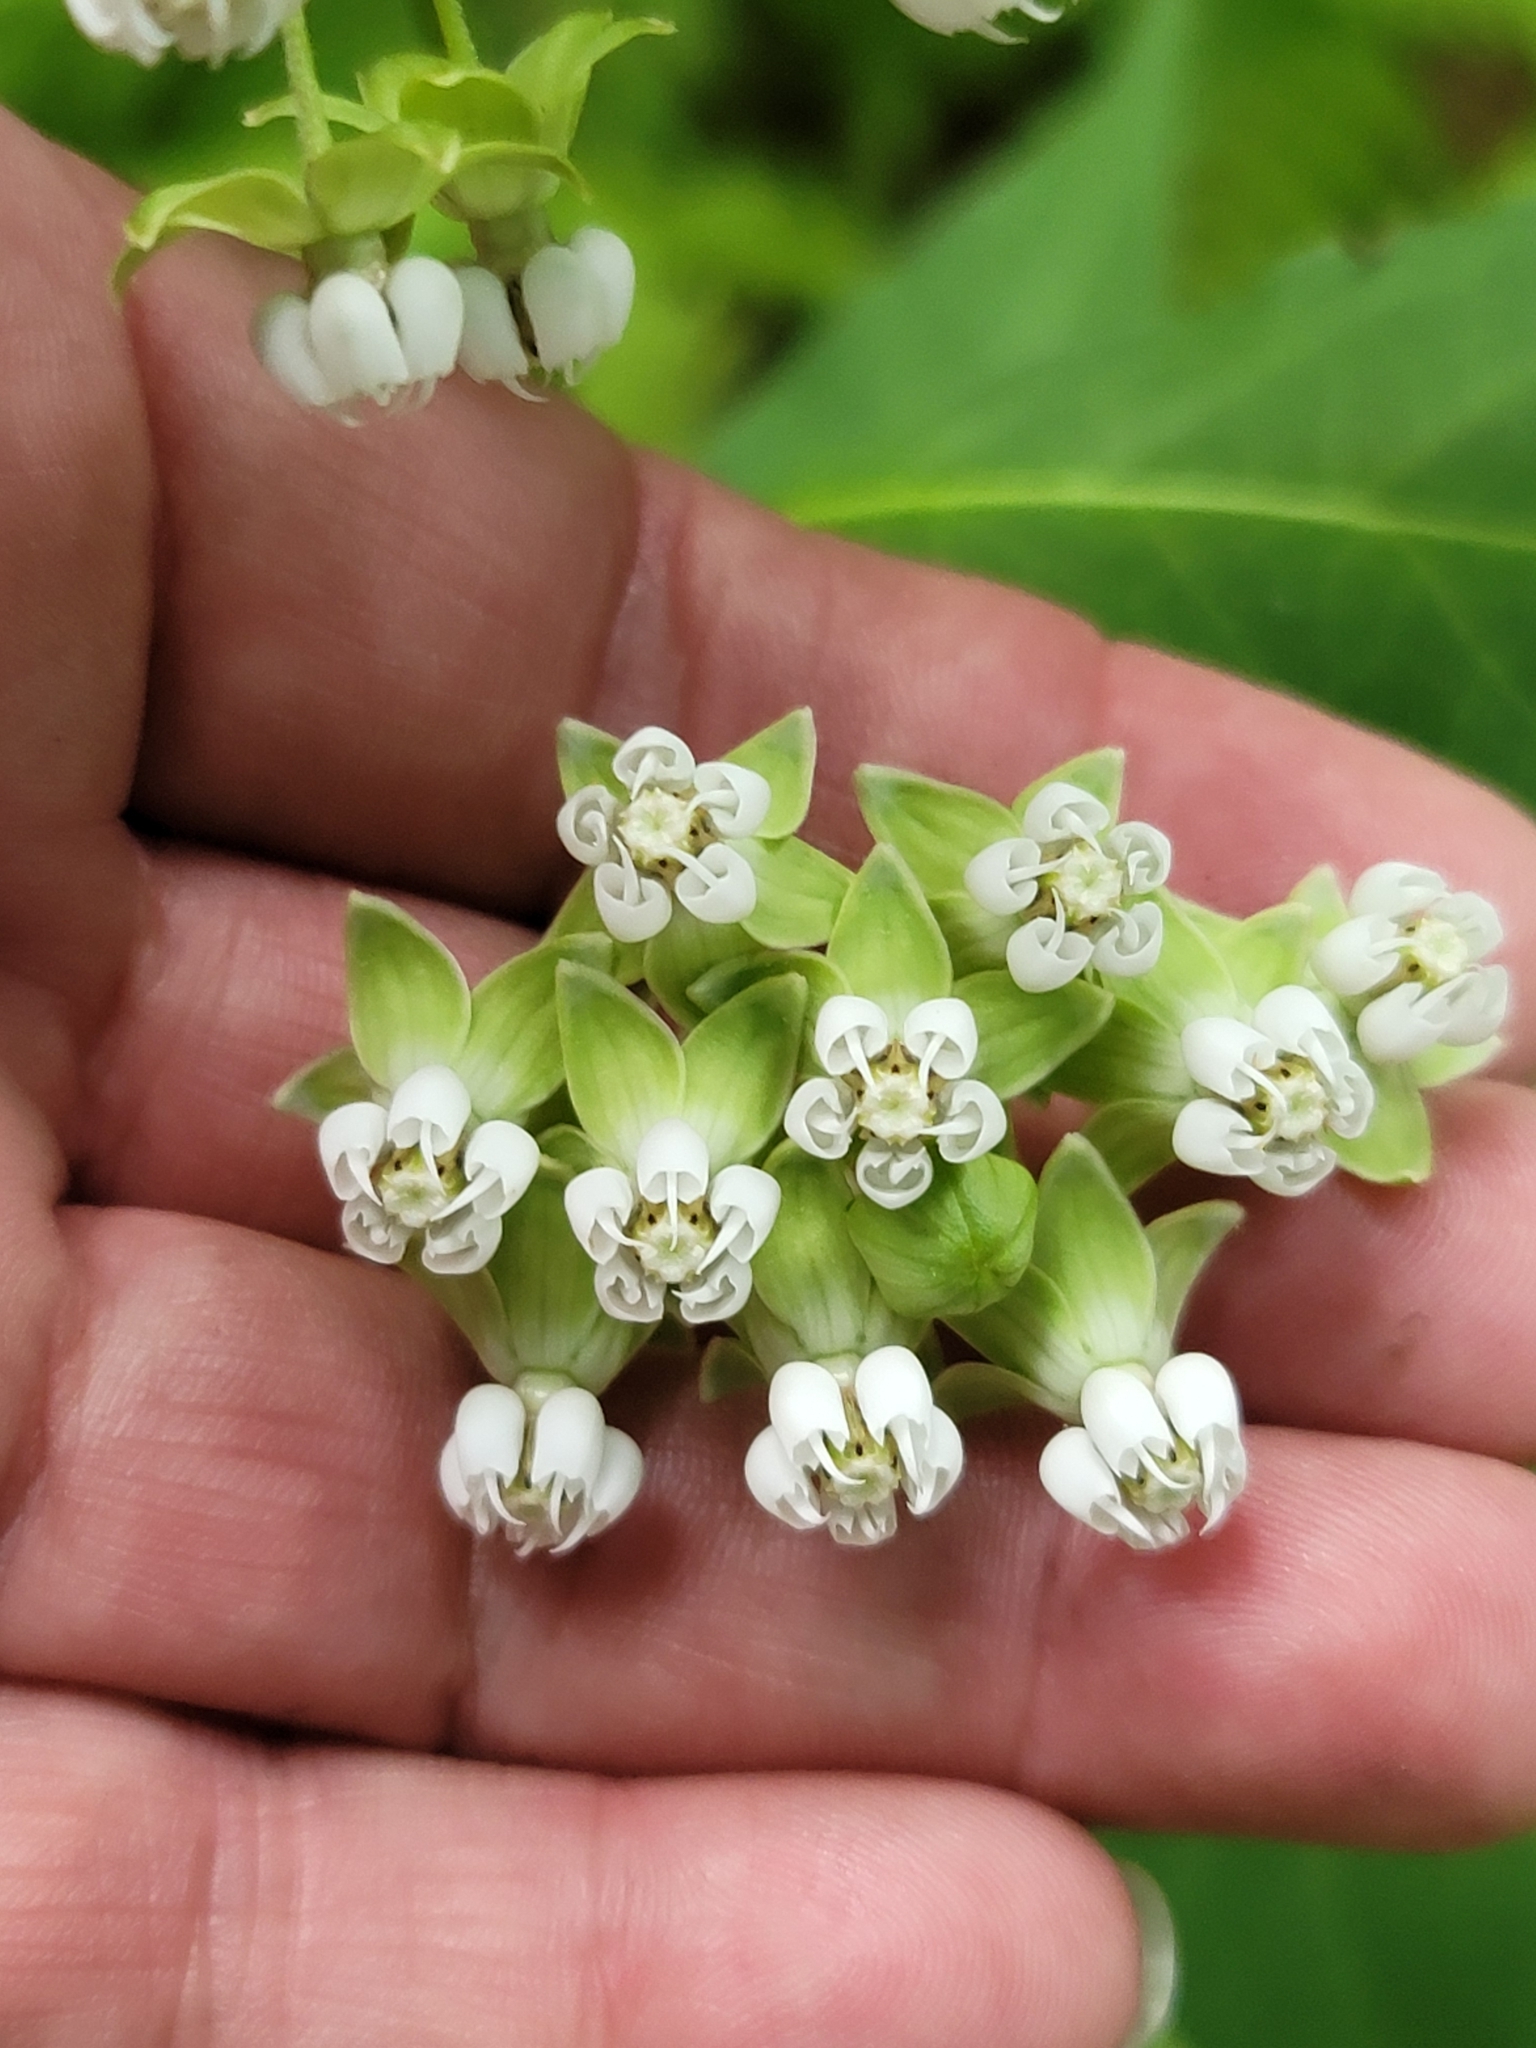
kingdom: Plantae
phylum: Tracheophyta
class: Magnoliopsida
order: Gentianales
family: Apocynaceae
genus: Asclepias
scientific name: Asclepias exaltata
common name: Poke milkweed
